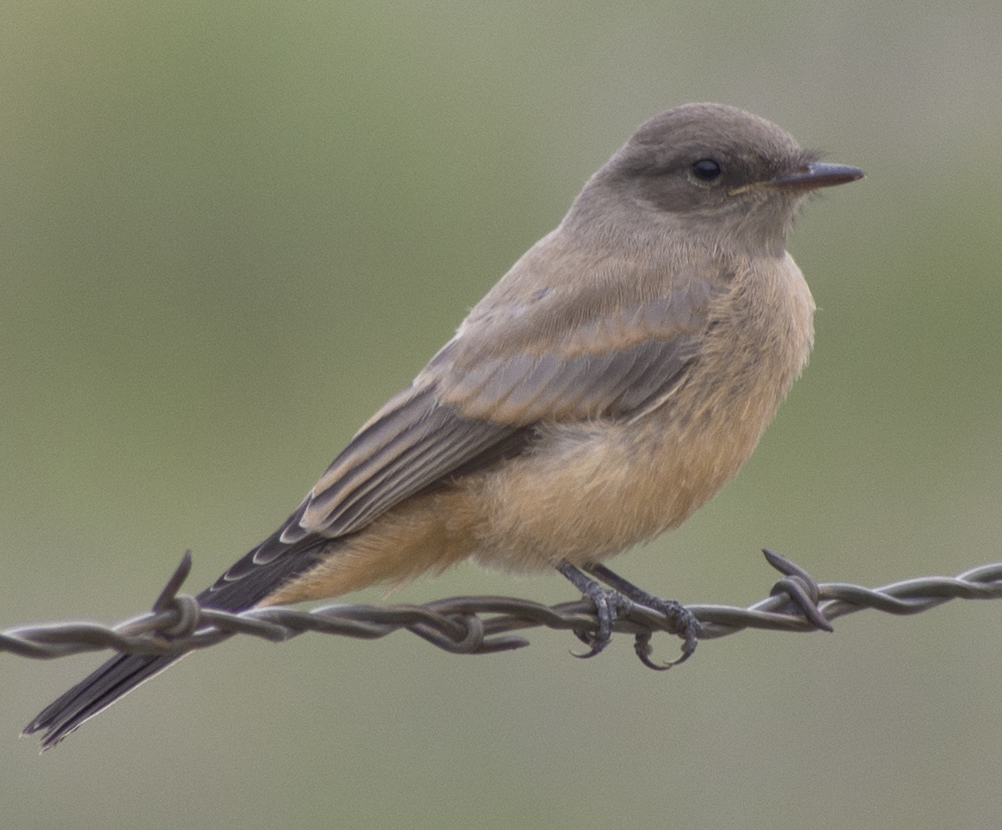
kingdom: Animalia
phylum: Chordata
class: Aves
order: Passeriformes
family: Tyrannidae
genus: Sayornis
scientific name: Sayornis saya
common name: Say's phoebe
